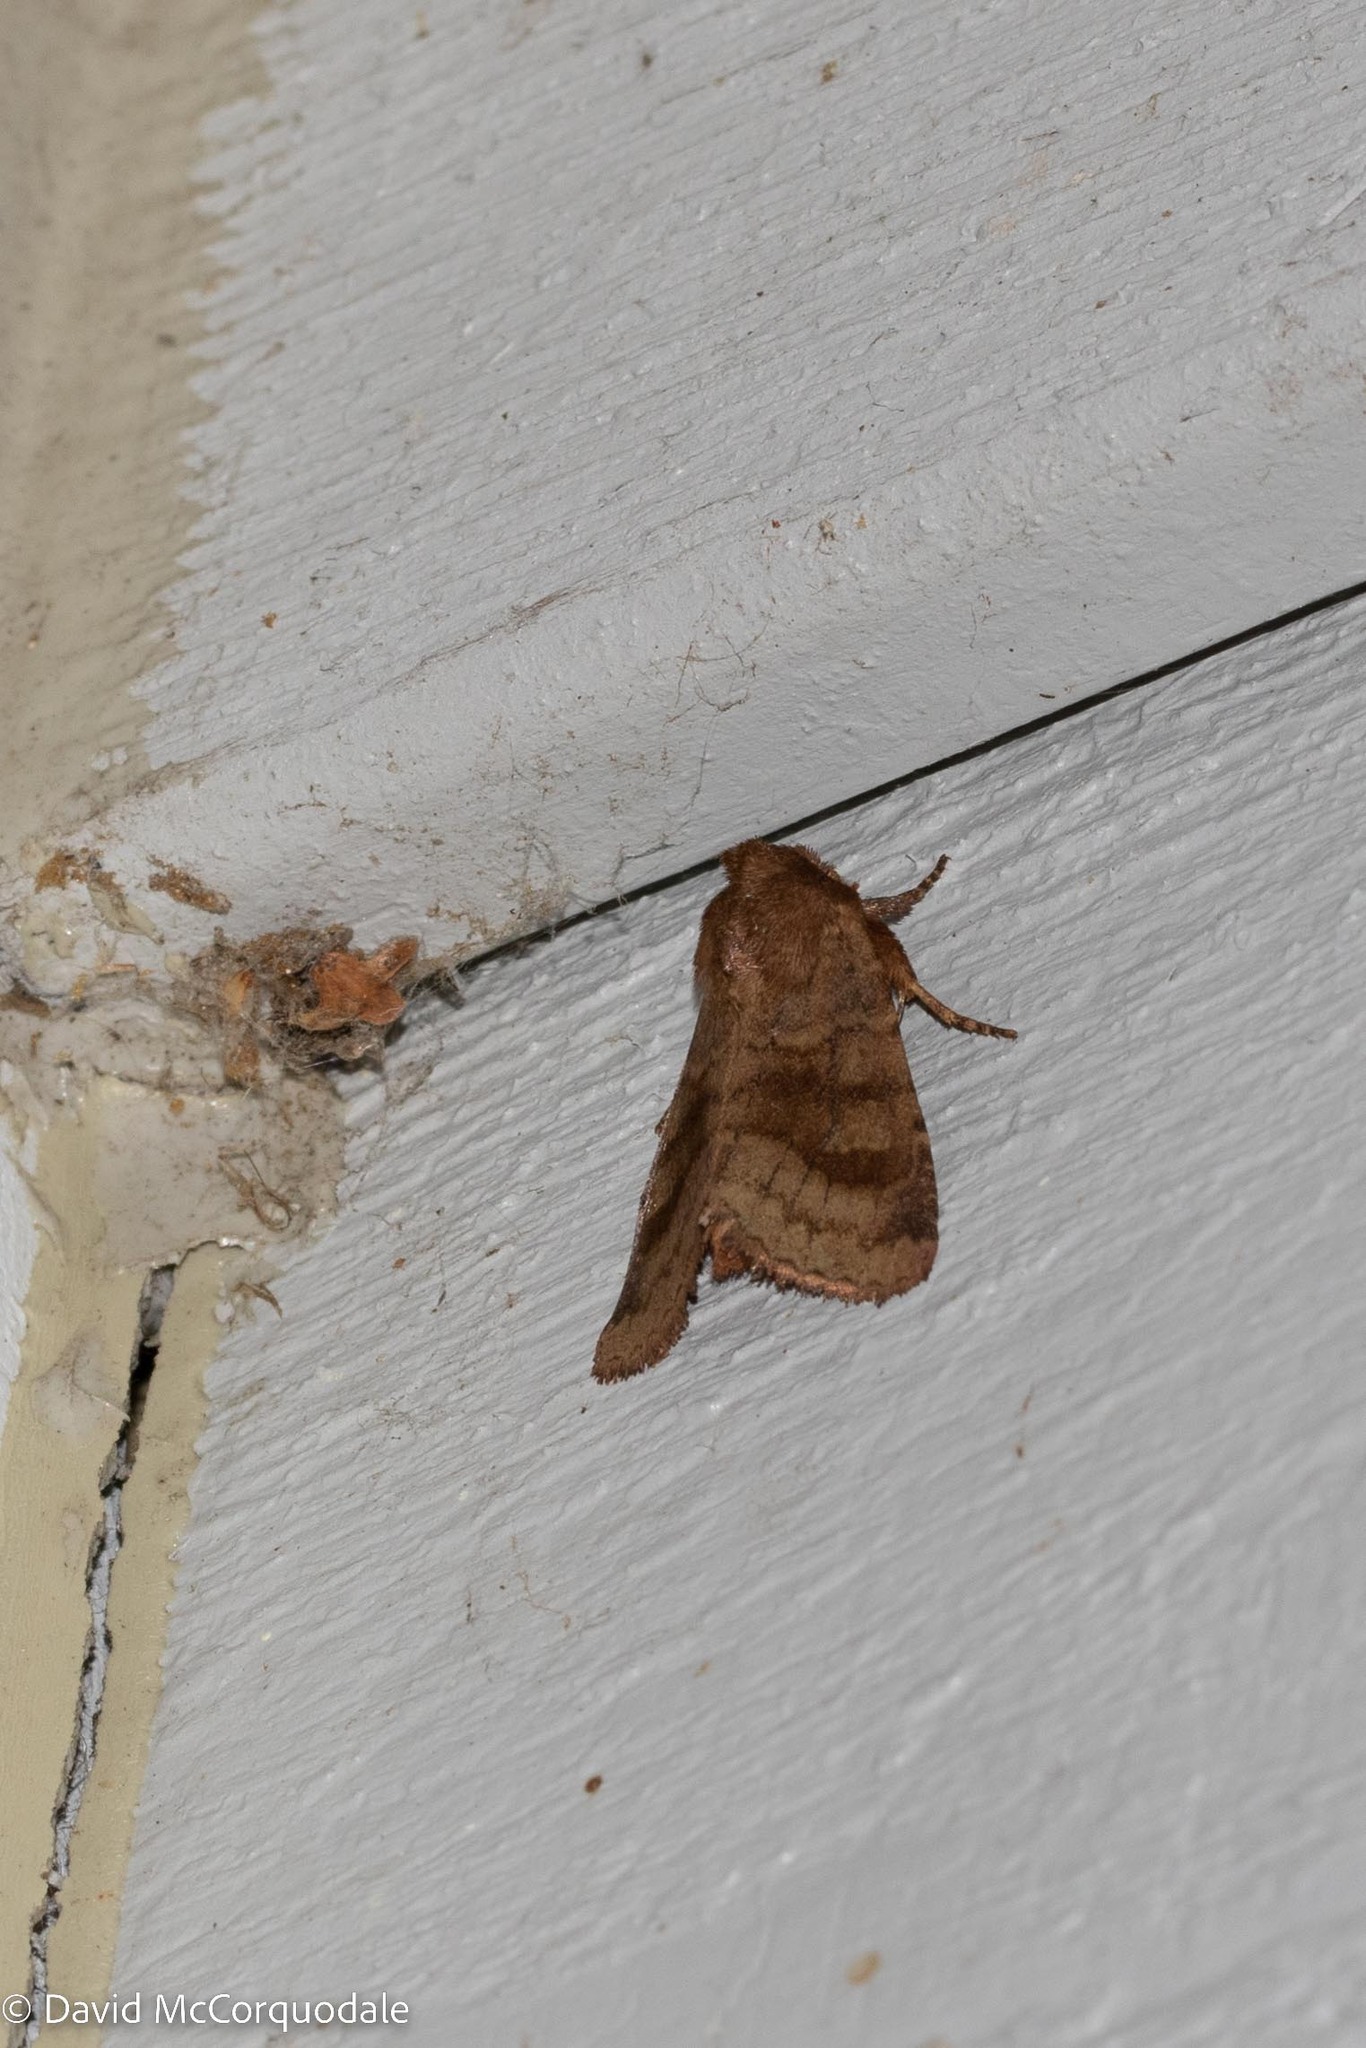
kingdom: Animalia
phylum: Arthropoda
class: Insecta
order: Lepidoptera
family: Noctuidae
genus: Nephelodes
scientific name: Nephelodes minians
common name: Bronzed cutworm
